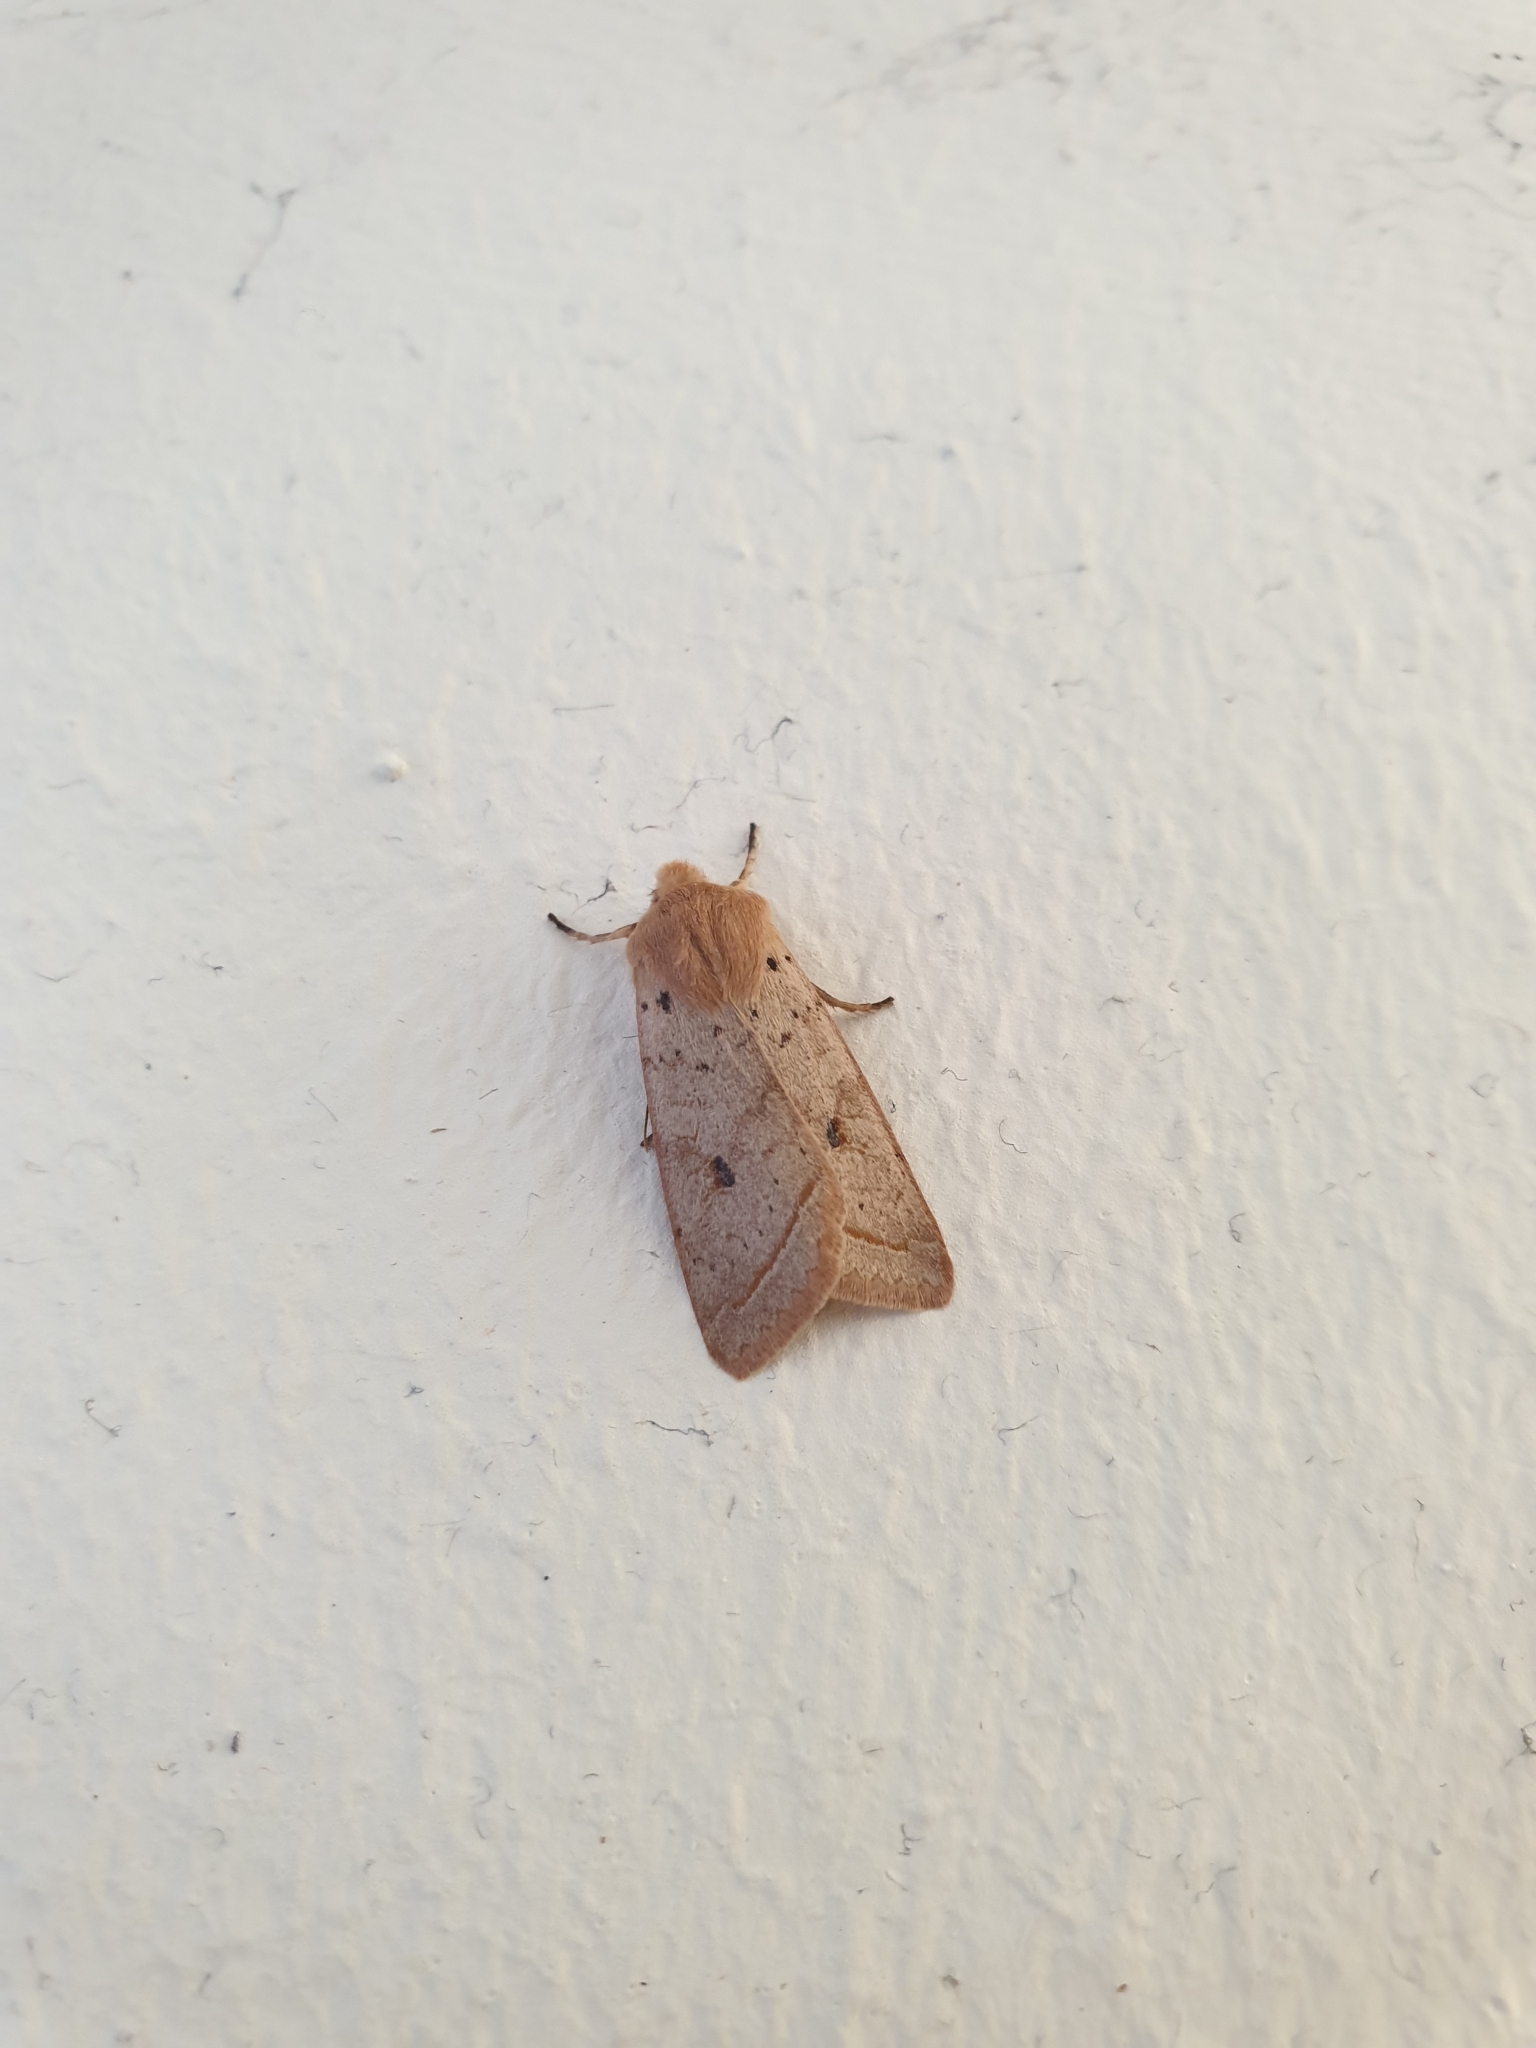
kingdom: Animalia
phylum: Arthropoda
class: Insecta
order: Lepidoptera
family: Noctuidae
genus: Agrochola
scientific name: Agrochola macilenta
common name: Yellow-line quaker
